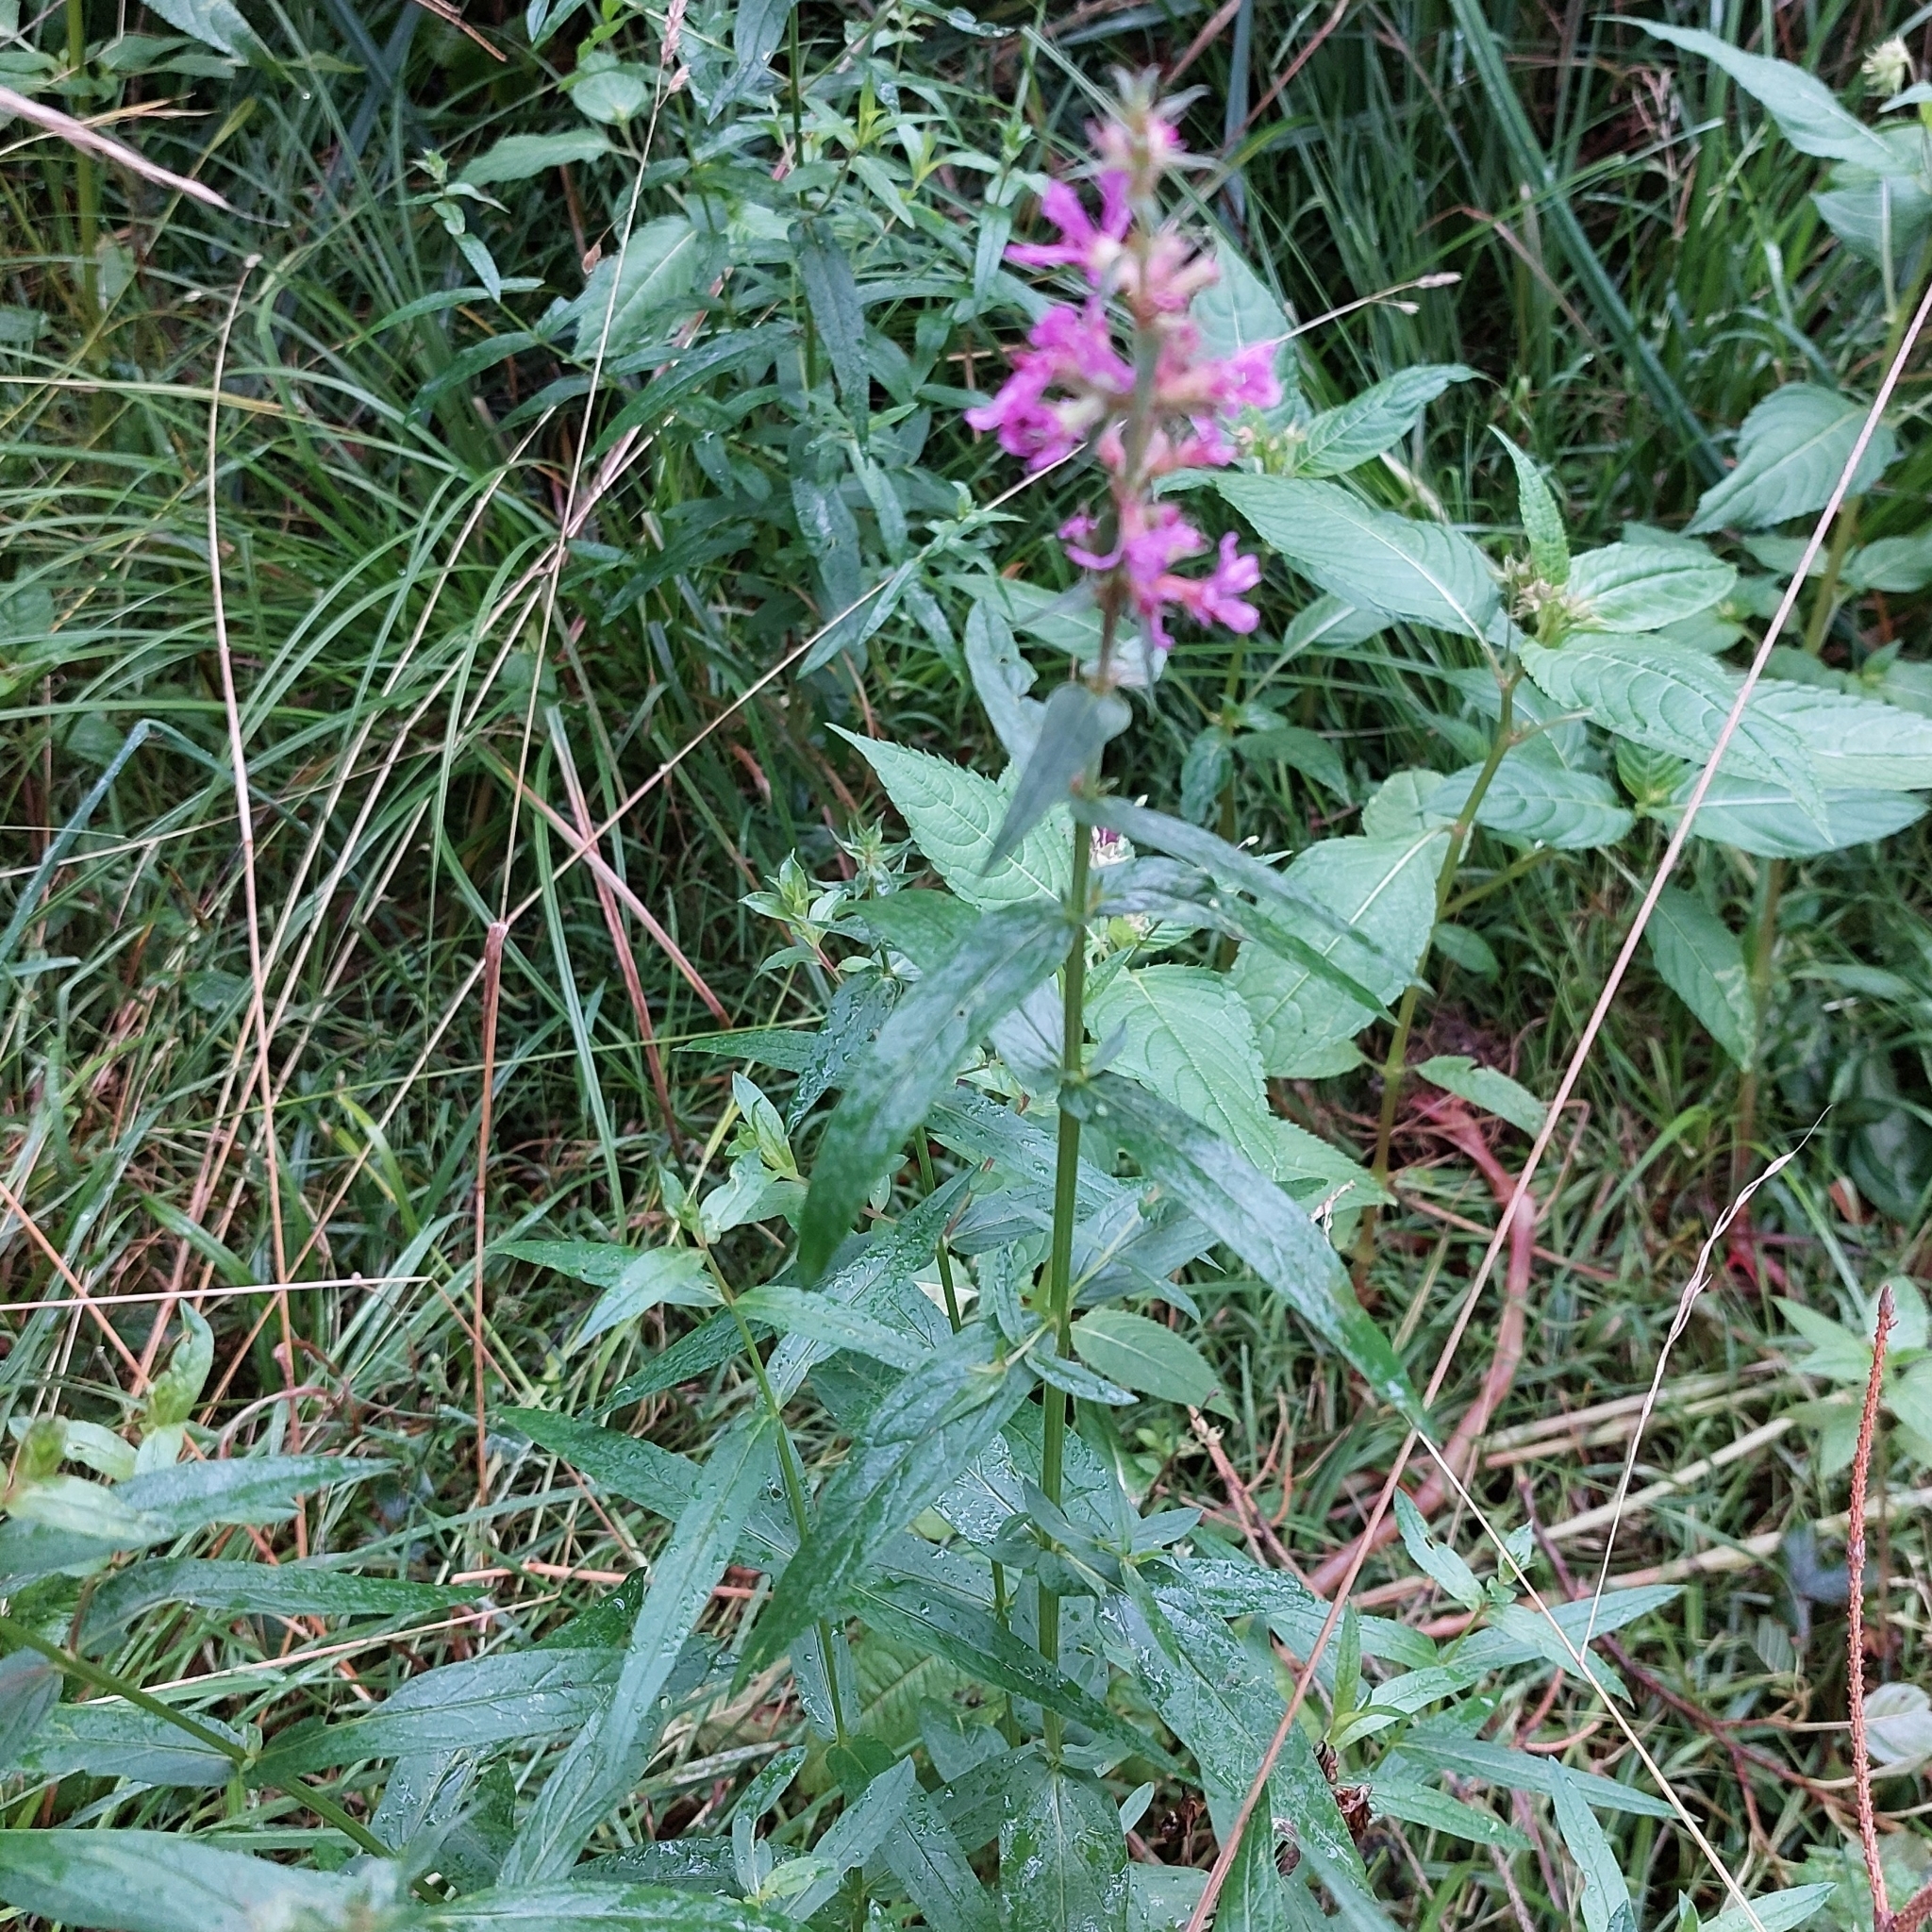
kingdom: Plantae
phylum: Tracheophyta
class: Magnoliopsida
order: Myrtales
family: Lythraceae
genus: Lythrum
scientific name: Lythrum salicaria
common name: Purple loosestrife
